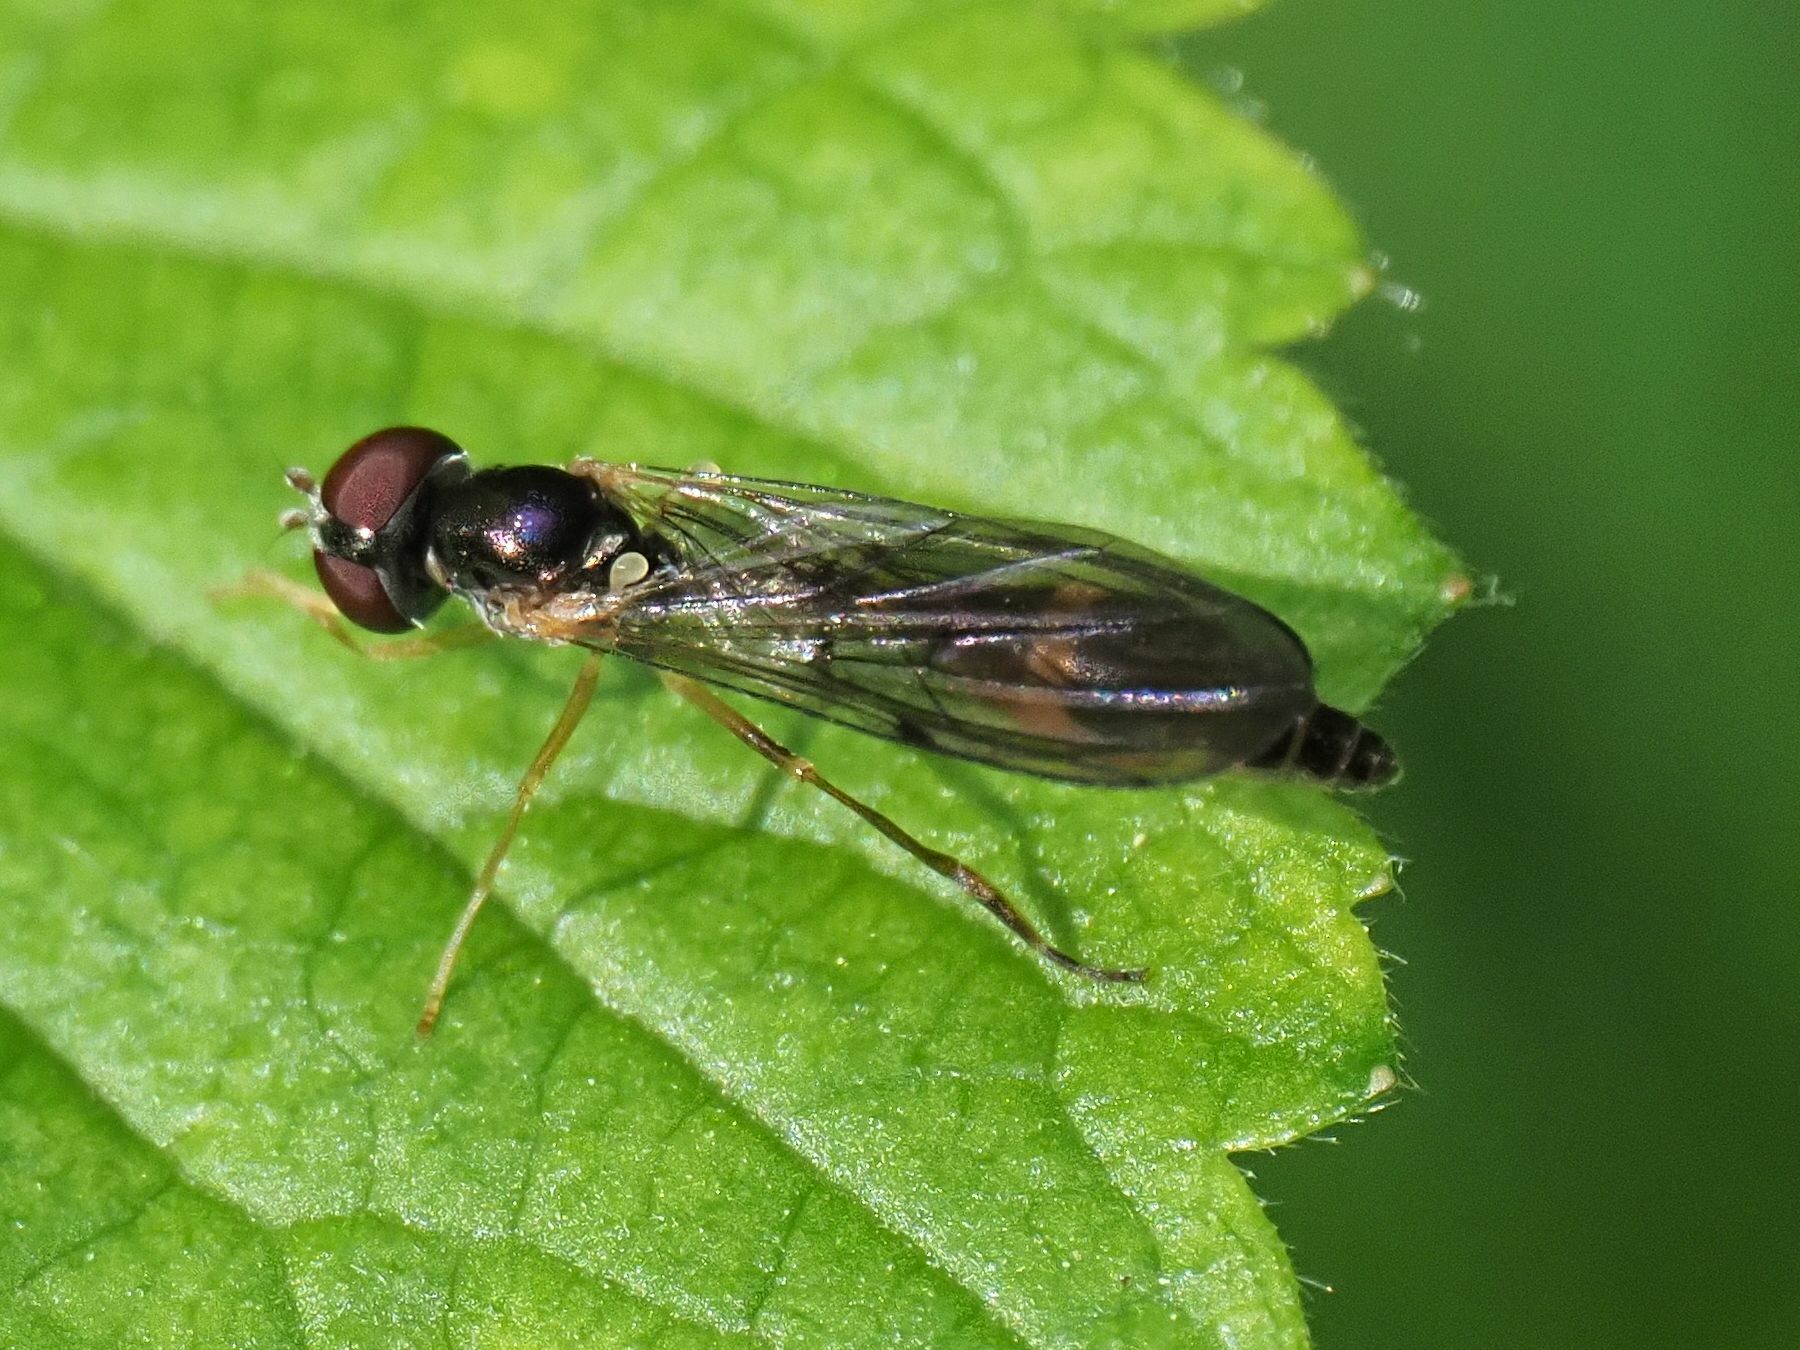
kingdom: Animalia
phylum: Arthropoda
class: Insecta
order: Diptera
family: Syrphidae
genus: Baccha
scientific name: Baccha elongata
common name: Common dainty
